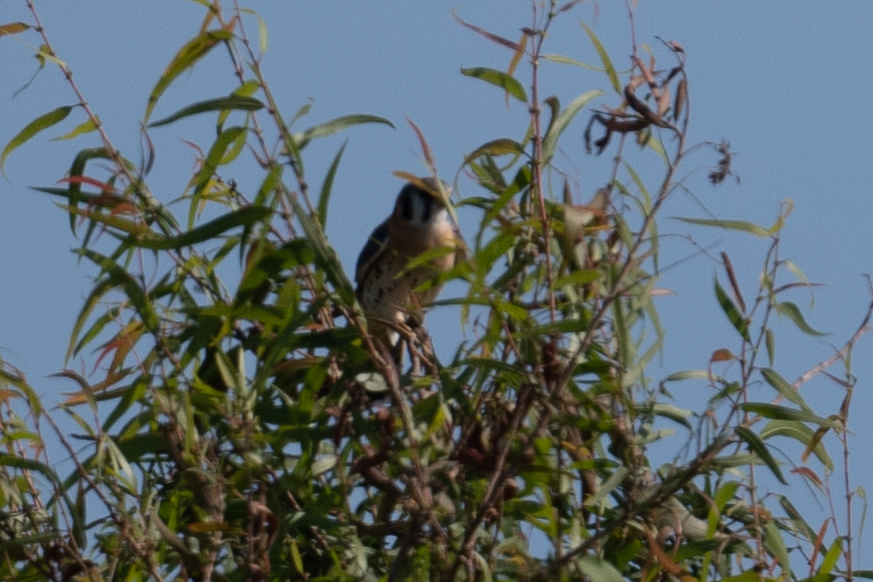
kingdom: Animalia
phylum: Chordata
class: Aves
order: Falconiformes
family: Falconidae
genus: Falco
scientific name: Falco sparverius
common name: American kestrel
